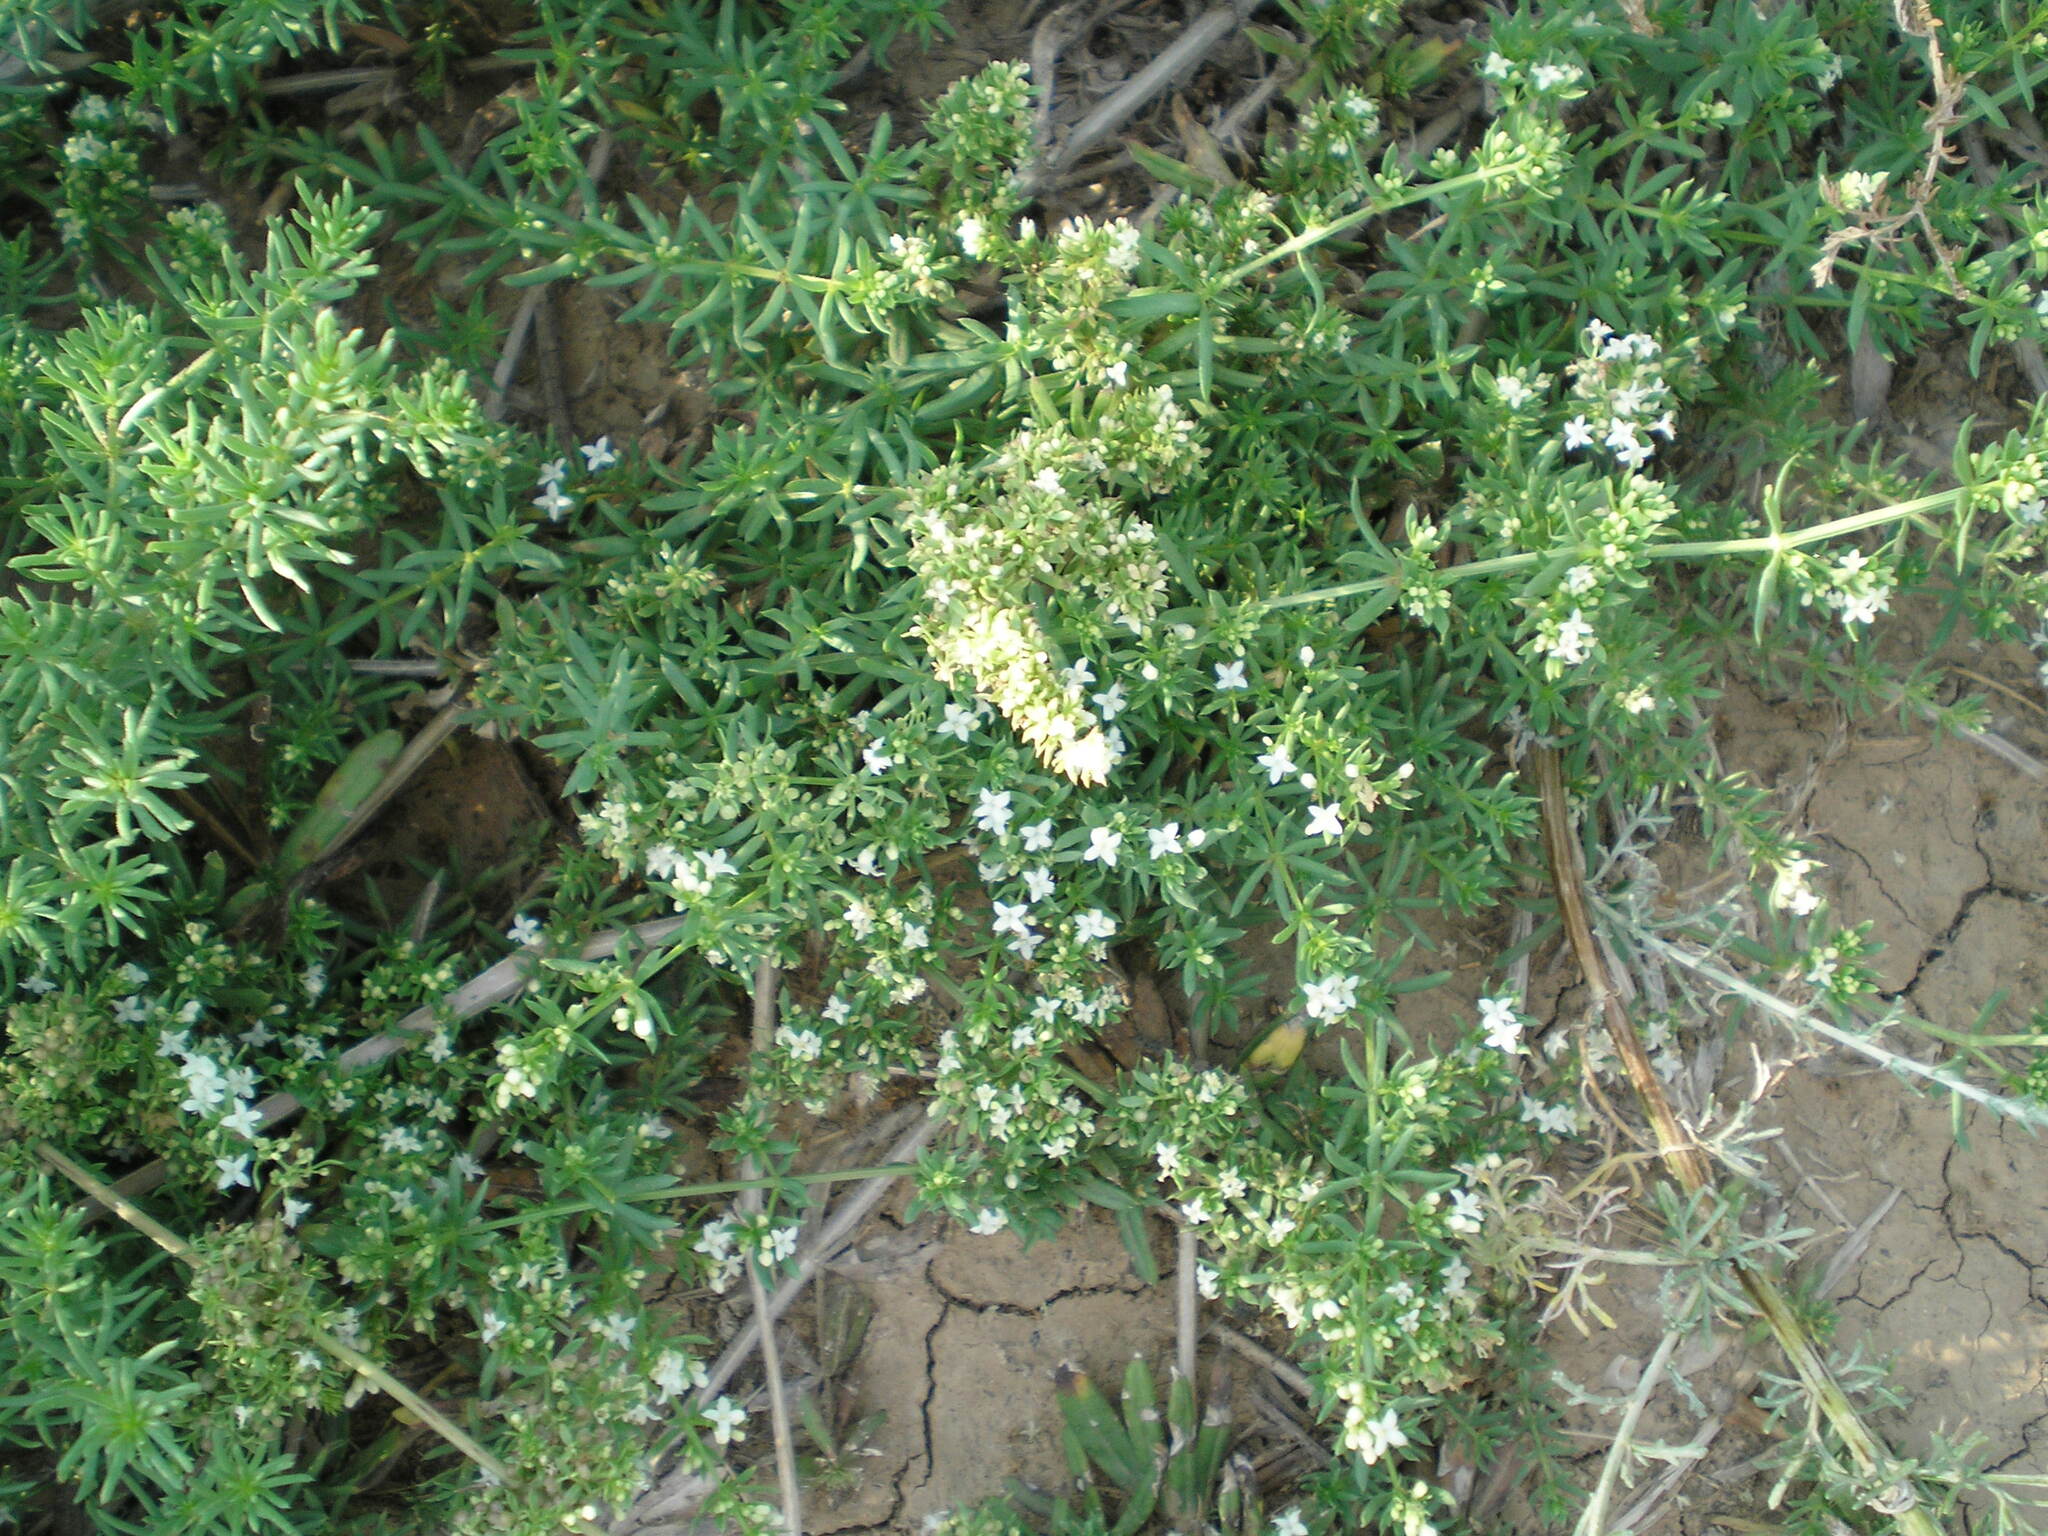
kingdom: Plantae
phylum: Tracheophyta
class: Magnoliopsida
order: Gentianales
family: Rubiaceae
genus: Galium
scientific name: Galium humifusum
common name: Spreading bedstraw
